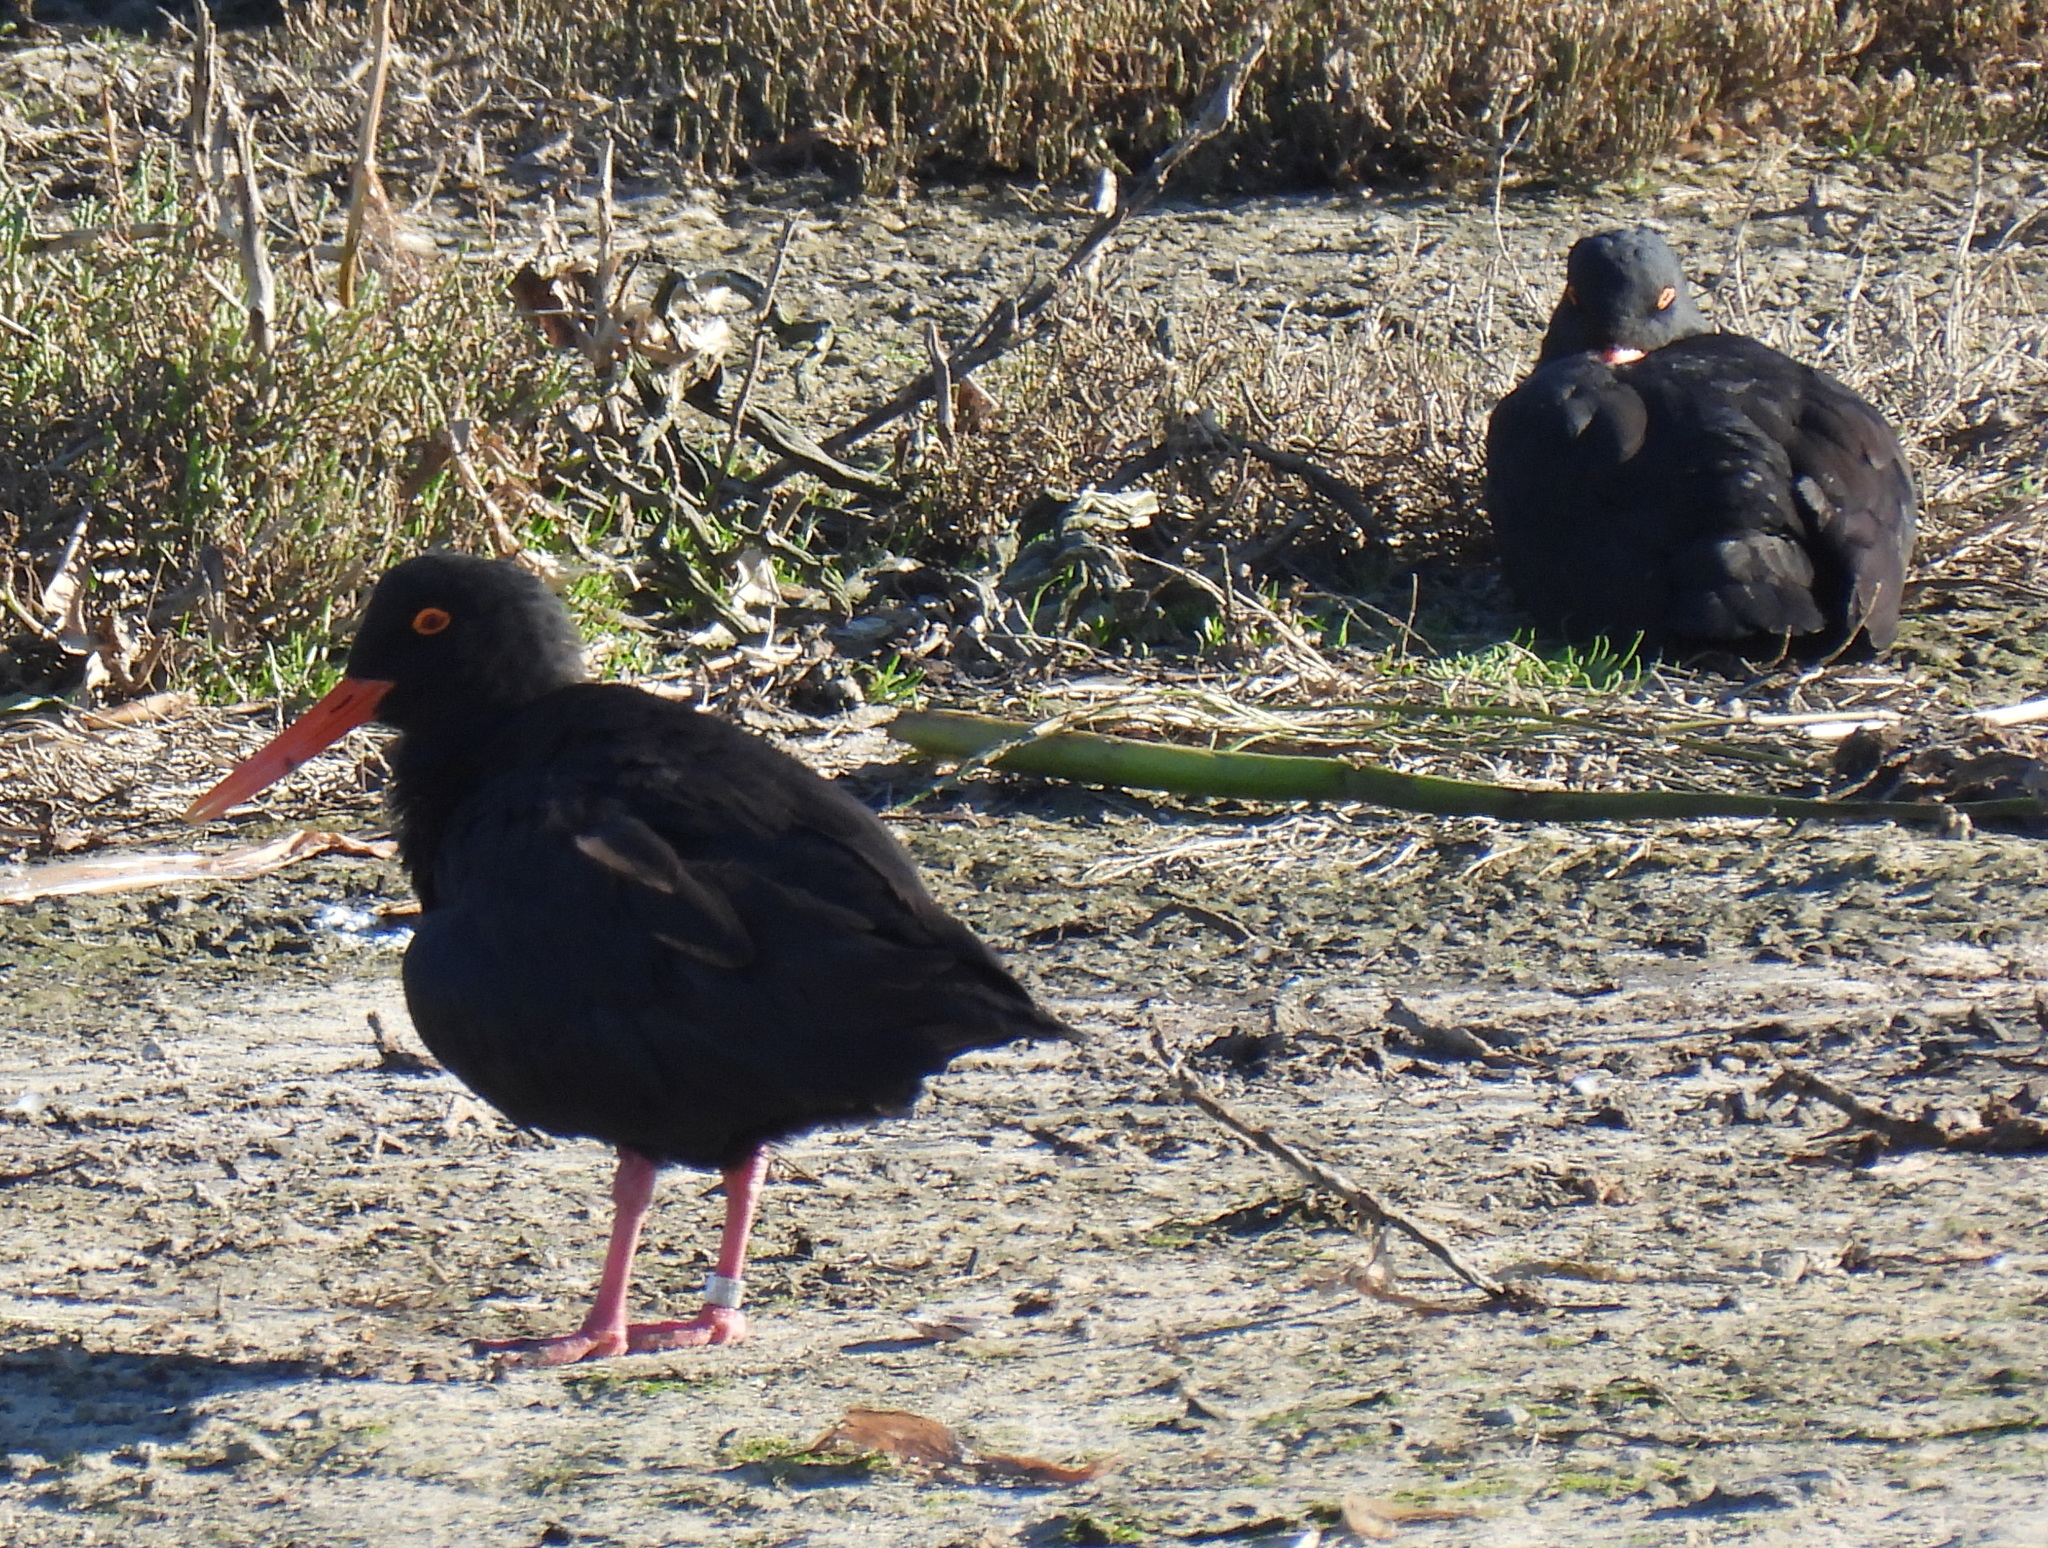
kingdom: Animalia
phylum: Chordata
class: Aves
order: Charadriiformes
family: Haematopodidae
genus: Haematopus
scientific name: Haematopus moquini
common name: African oystercatcher
